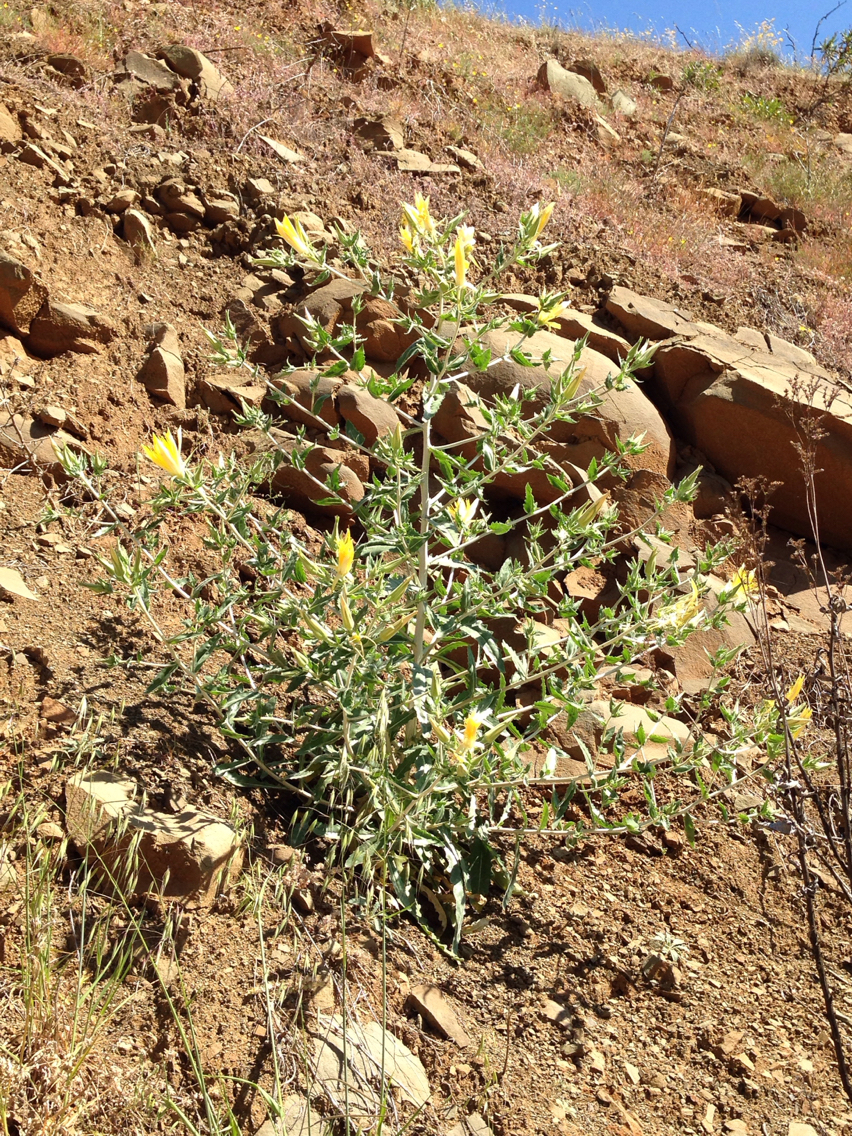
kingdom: Plantae
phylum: Tracheophyta
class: Magnoliopsida
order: Cornales
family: Loasaceae
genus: Mentzelia
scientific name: Mentzelia laevicaulis
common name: Smooth-stem blazingstar
